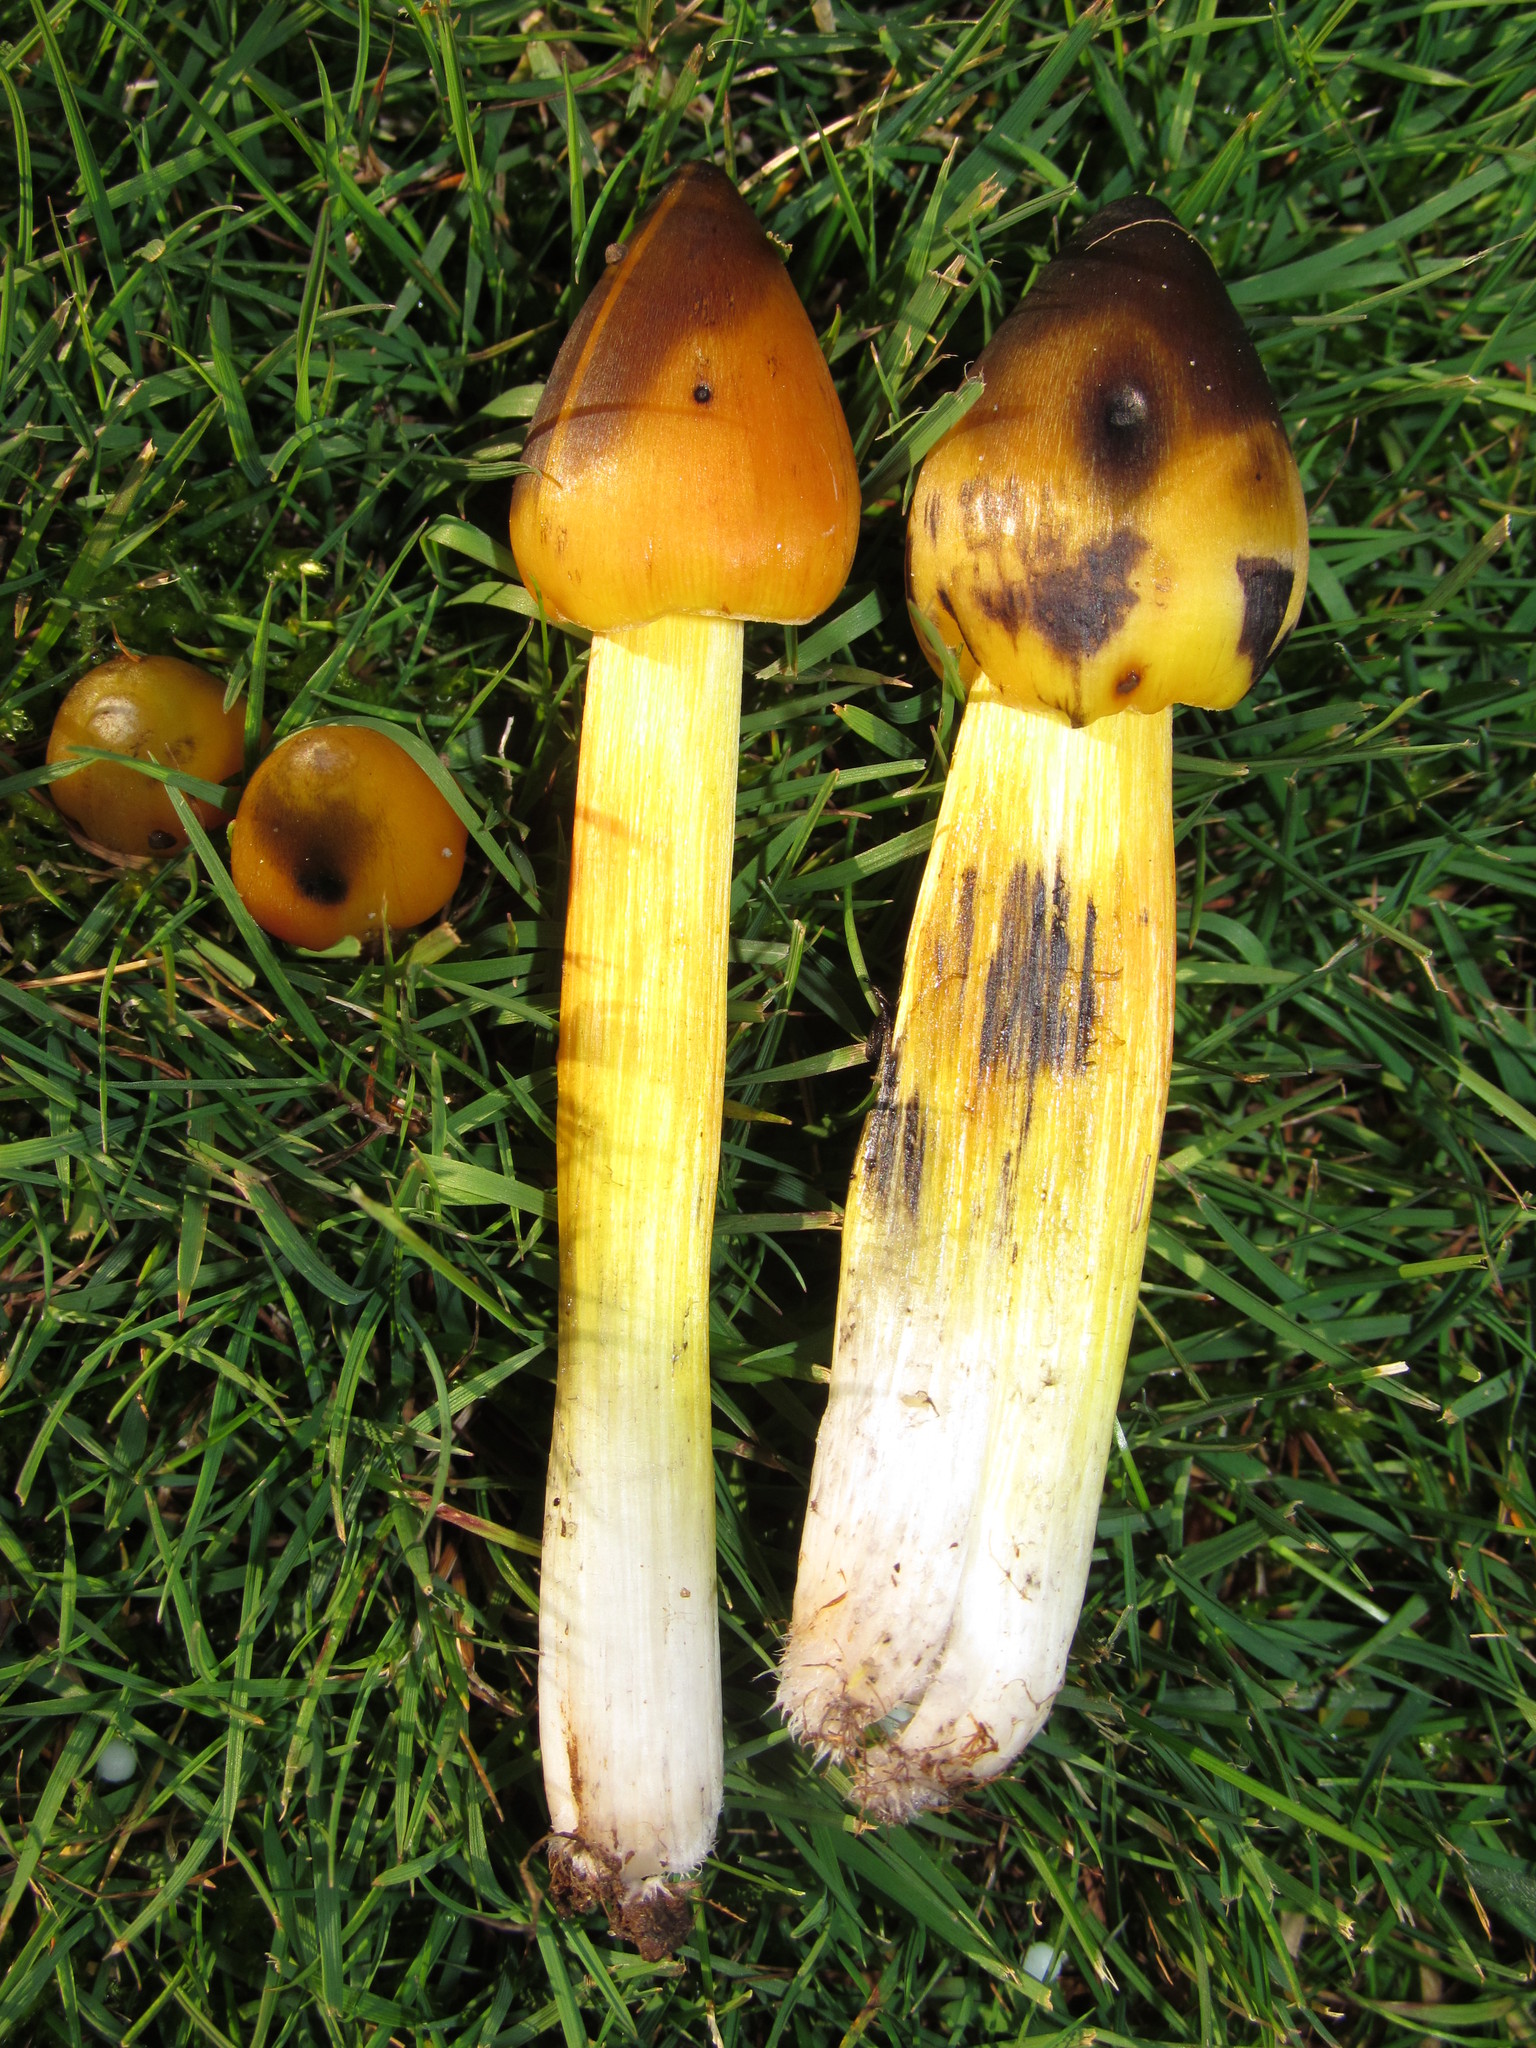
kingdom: Fungi
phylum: Basidiomycota
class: Agaricomycetes
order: Agaricales
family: Hygrophoraceae
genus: Hygrocybe
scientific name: Hygrocybe singeri
